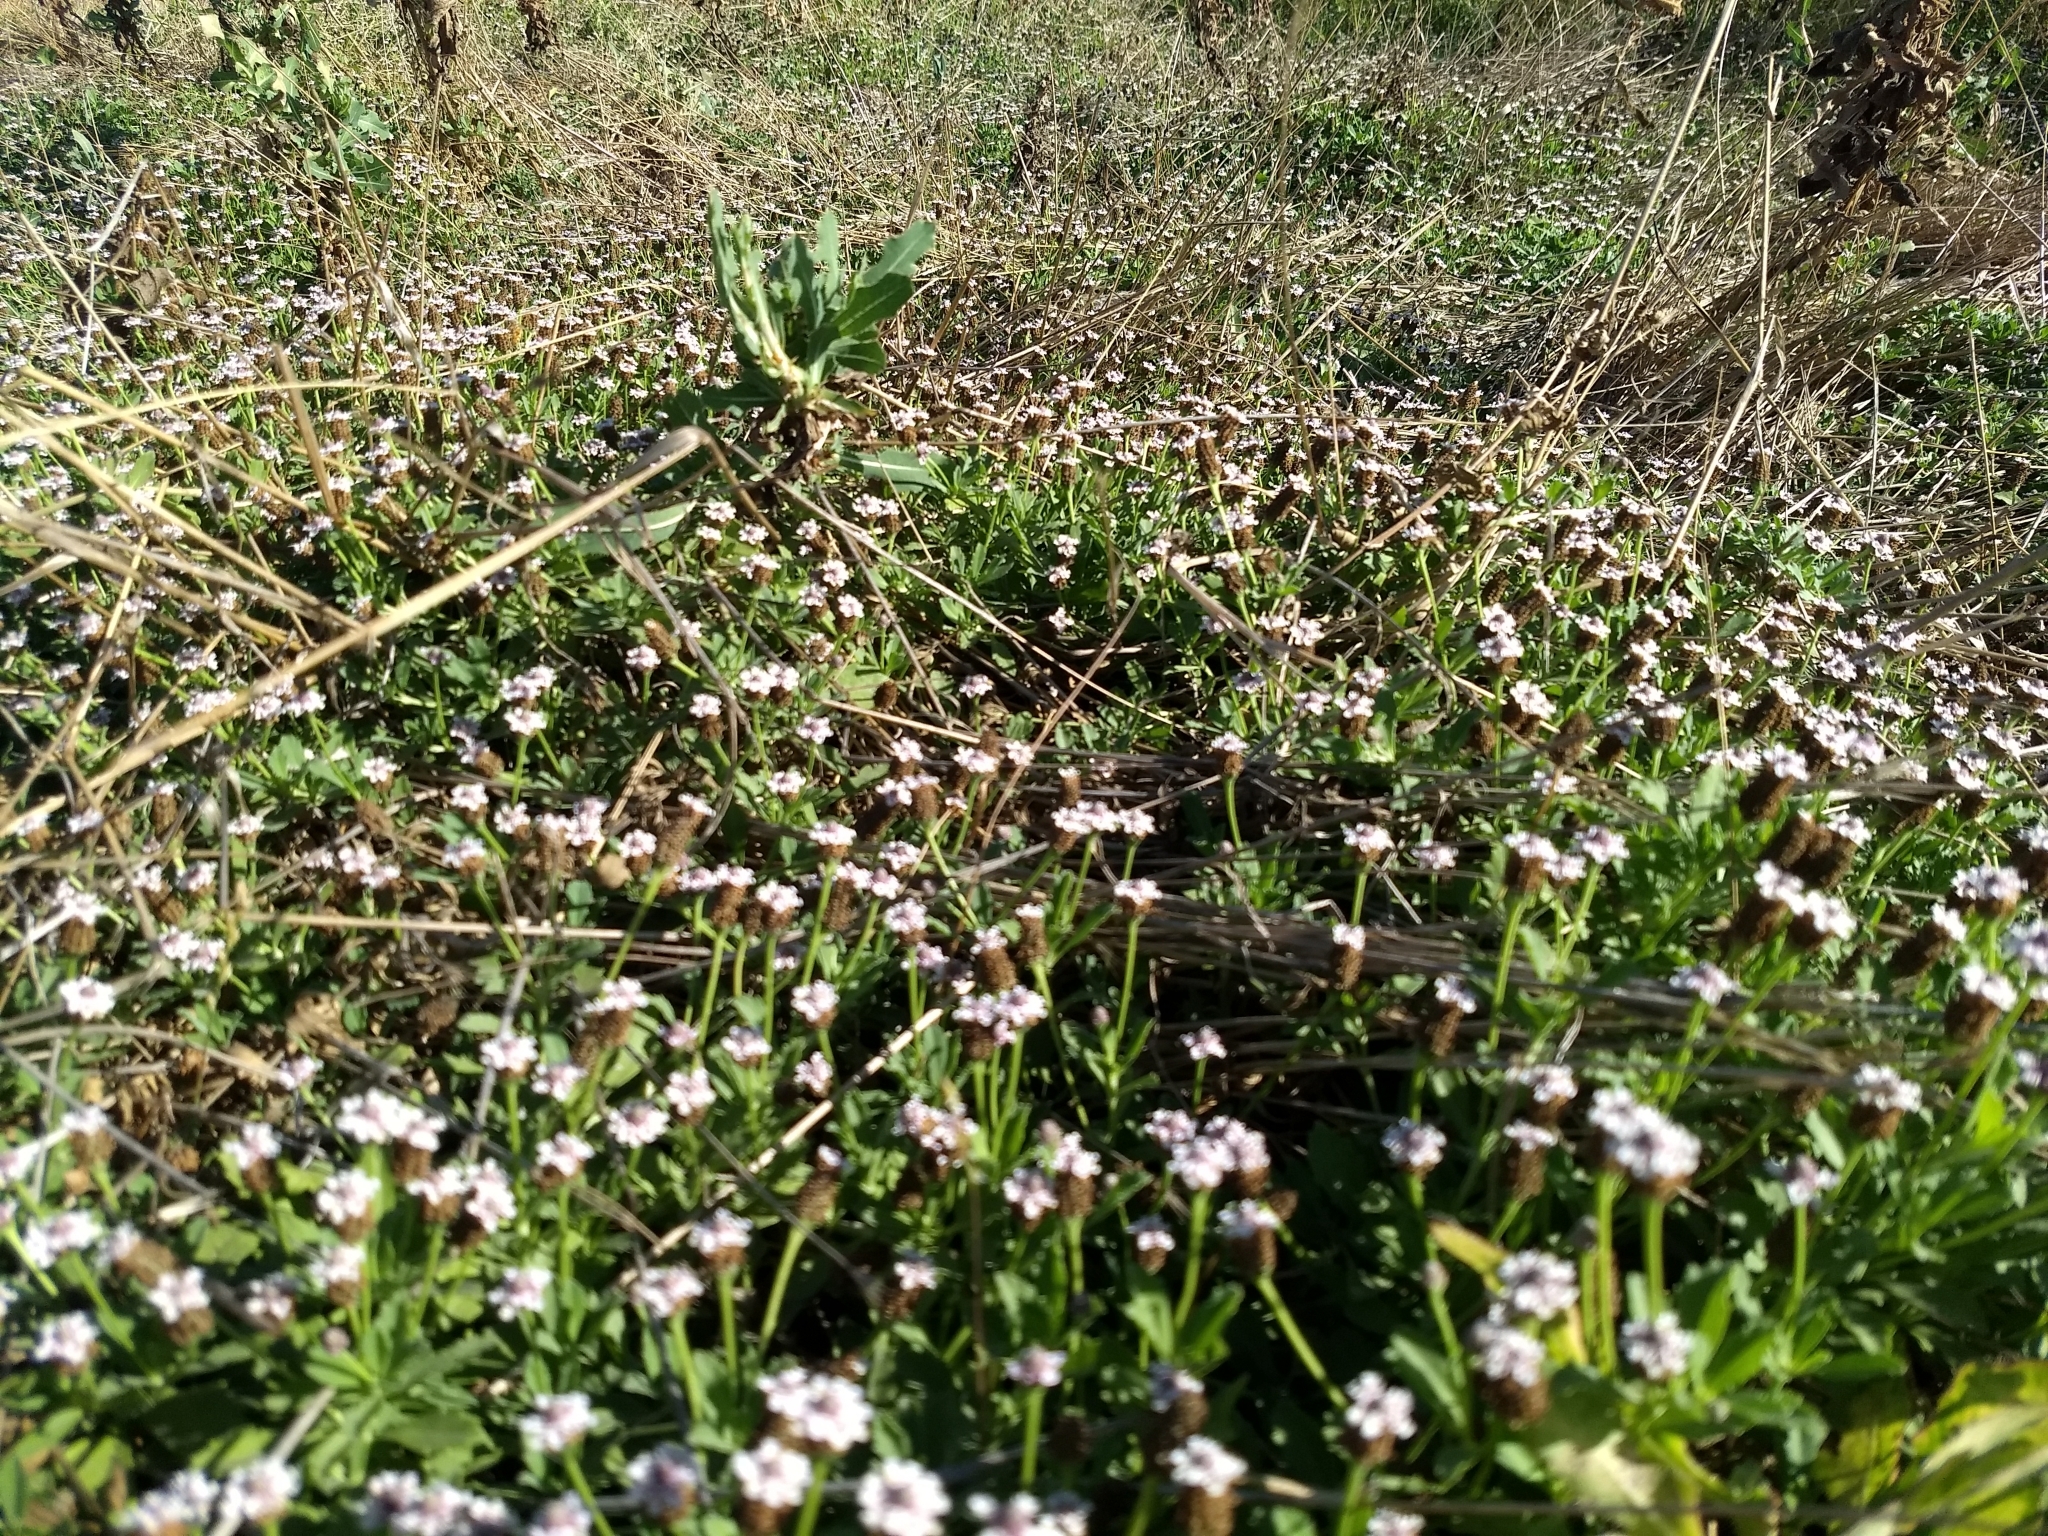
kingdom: Plantae
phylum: Tracheophyta
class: Magnoliopsida
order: Lamiales
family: Verbenaceae
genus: Phyla
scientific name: Phyla nodiflora
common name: Frogfruit
